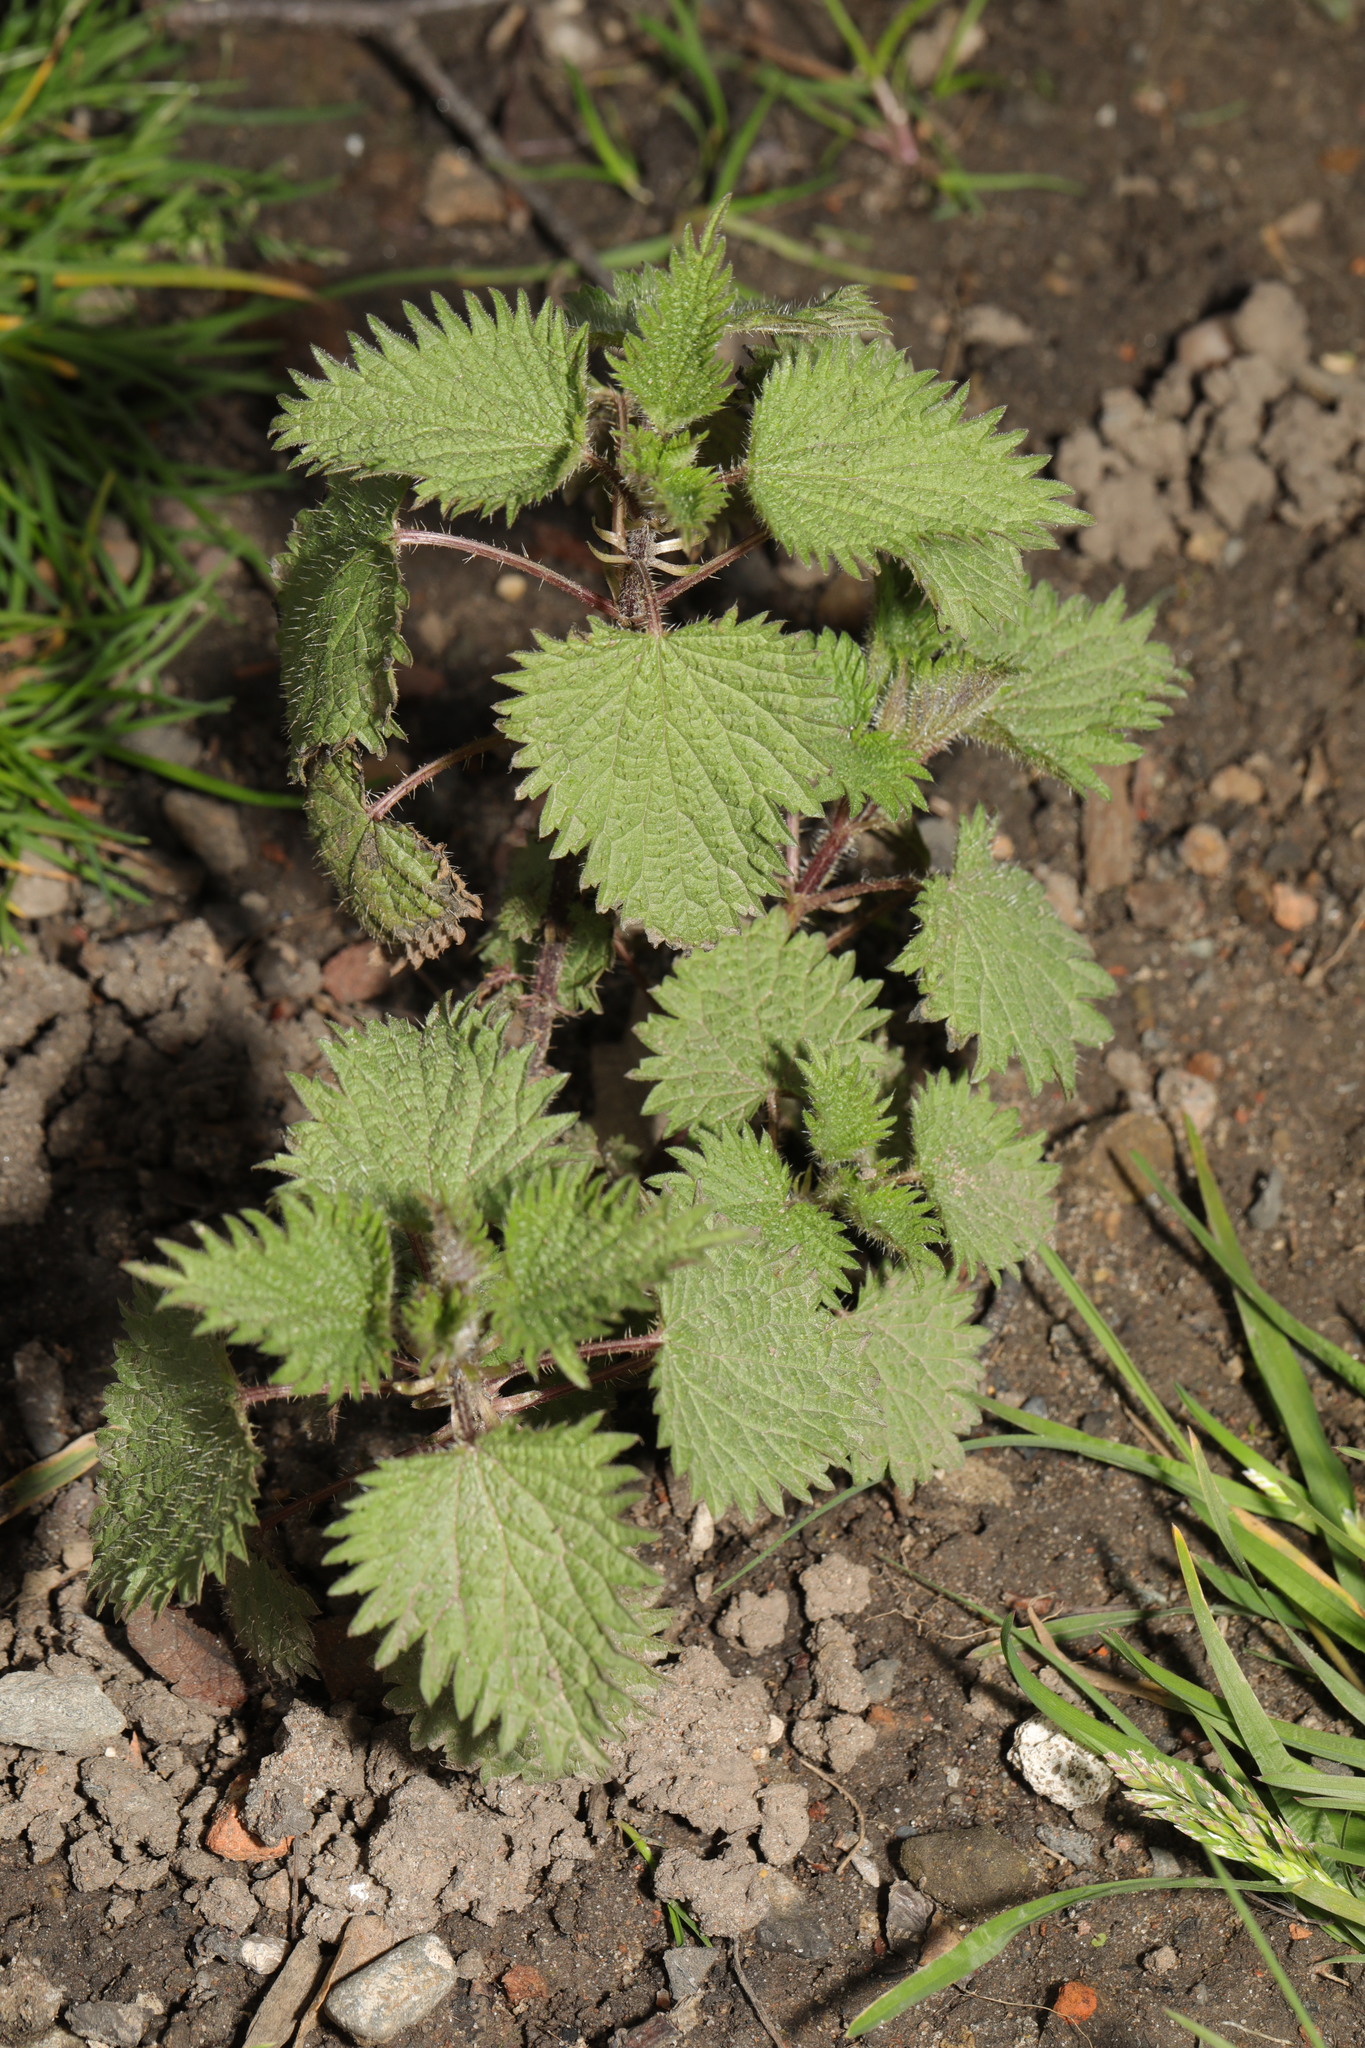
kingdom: Plantae
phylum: Tracheophyta
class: Magnoliopsida
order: Rosales
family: Urticaceae
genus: Urtica
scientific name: Urtica dioica
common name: Common nettle
